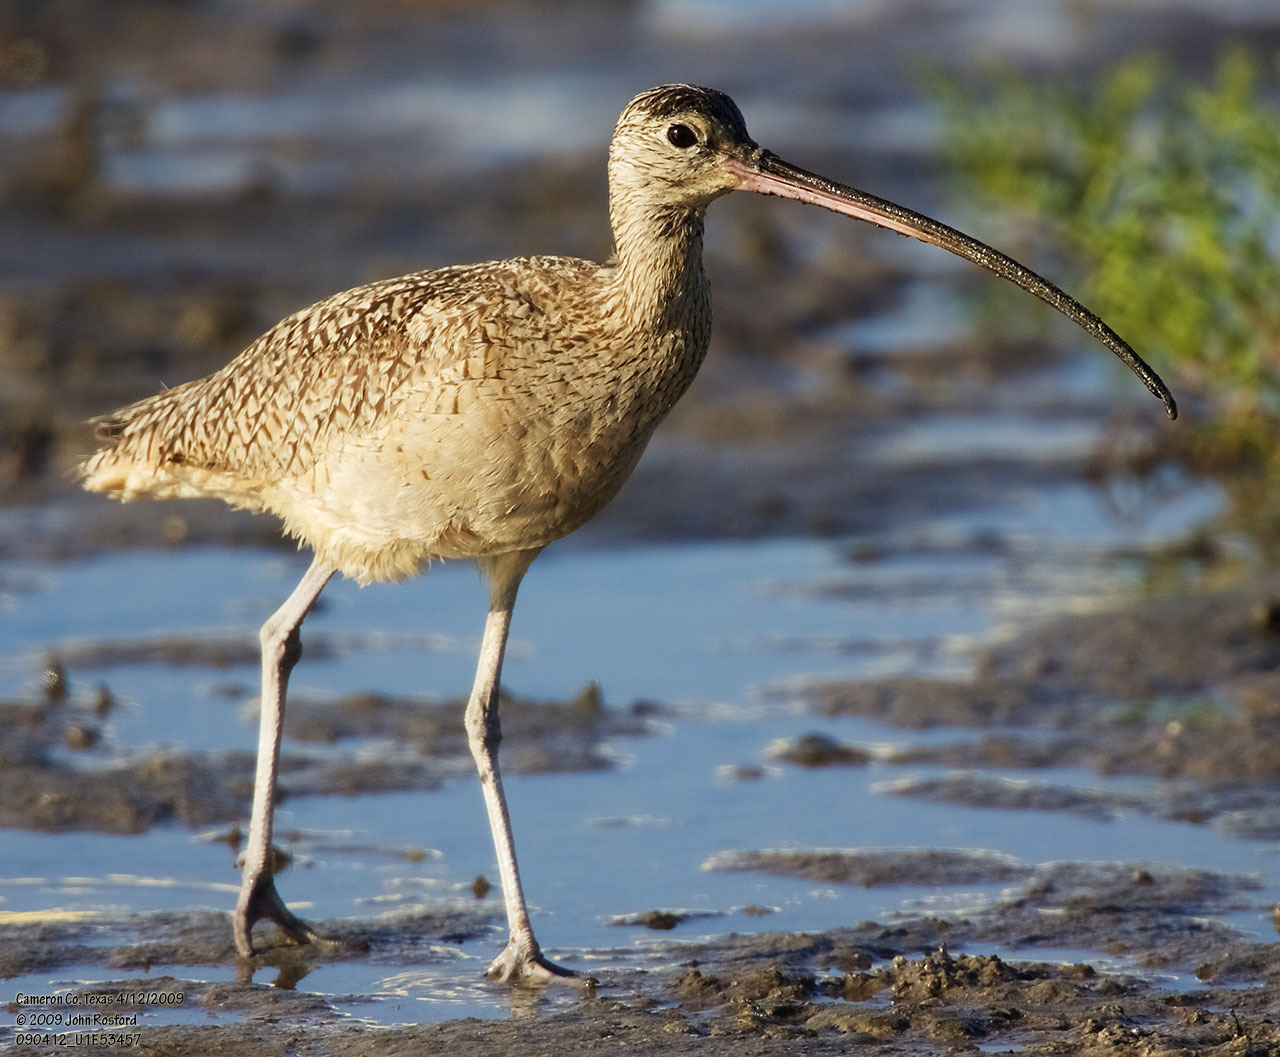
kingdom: Animalia
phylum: Chordata
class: Aves
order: Charadriiformes
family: Scolopacidae
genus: Numenius
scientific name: Numenius americanus
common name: Long-billed curlew
